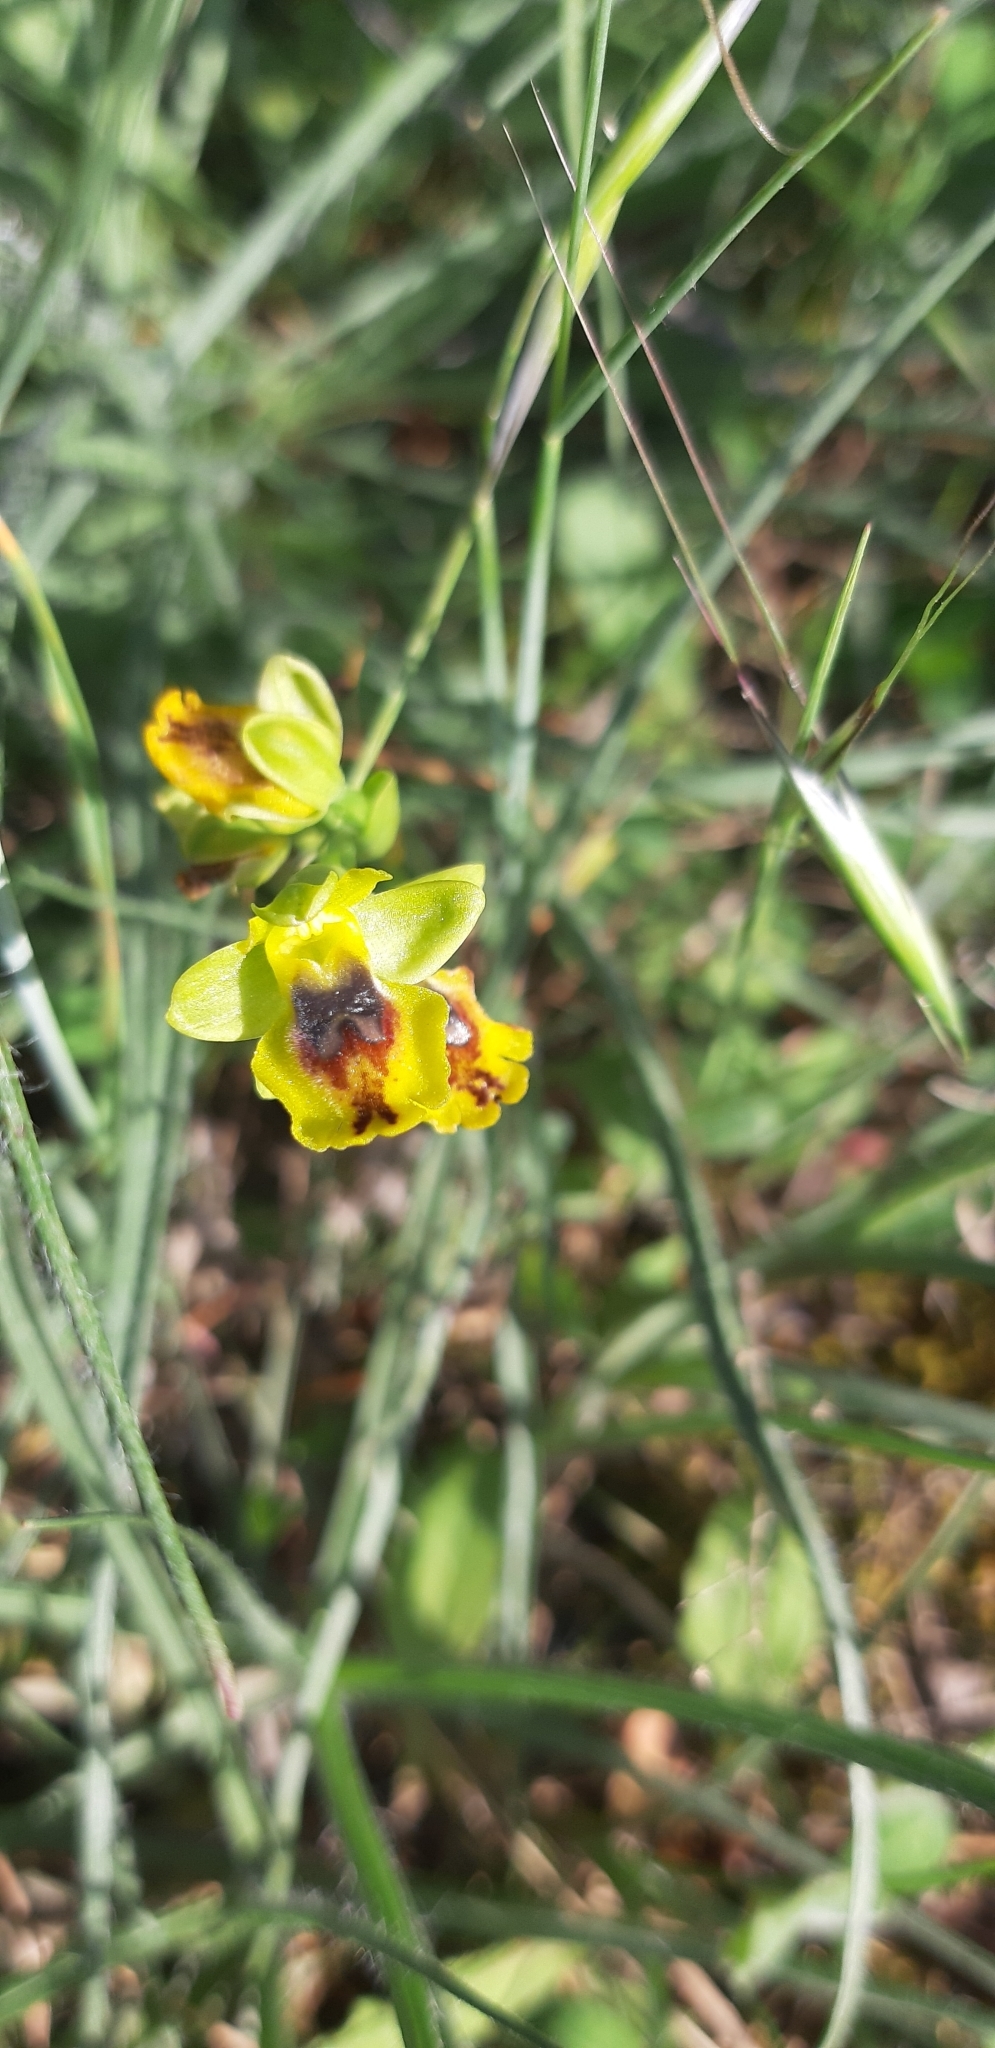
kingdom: Plantae
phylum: Tracheophyta
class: Liliopsida
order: Asparagales
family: Orchidaceae
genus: Ophrys
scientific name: Ophrys lutea
